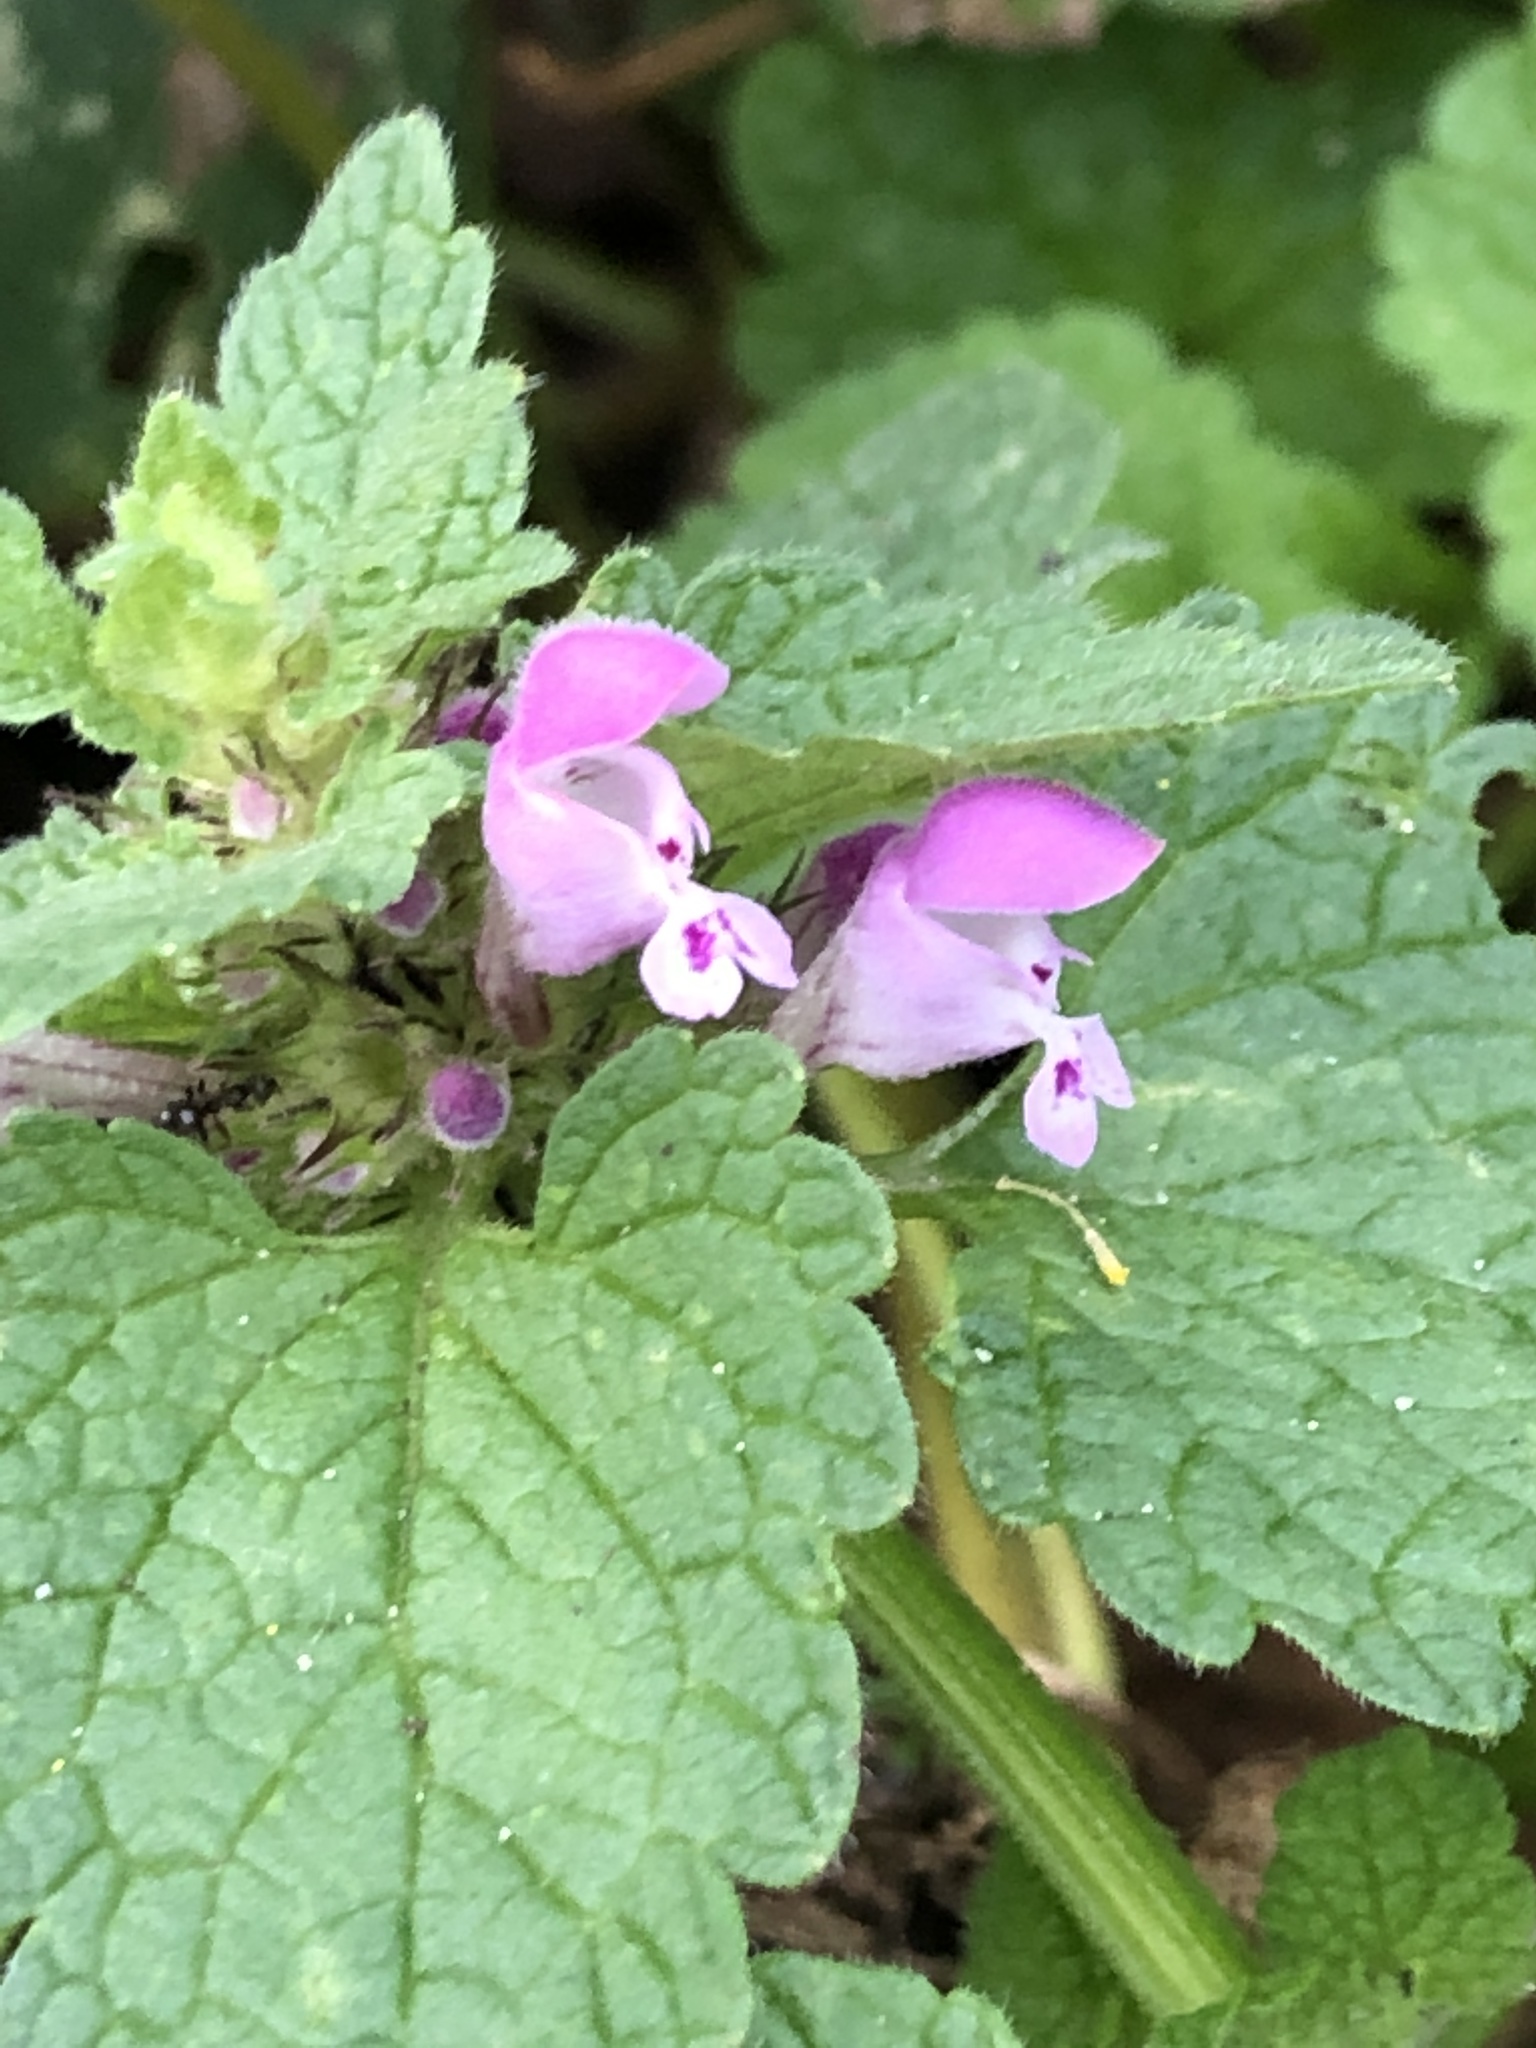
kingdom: Plantae
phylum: Tracheophyta
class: Magnoliopsida
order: Lamiales
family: Lamiaceae
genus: Lamium
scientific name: Lamium purpureum
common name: Red dead-nettle
